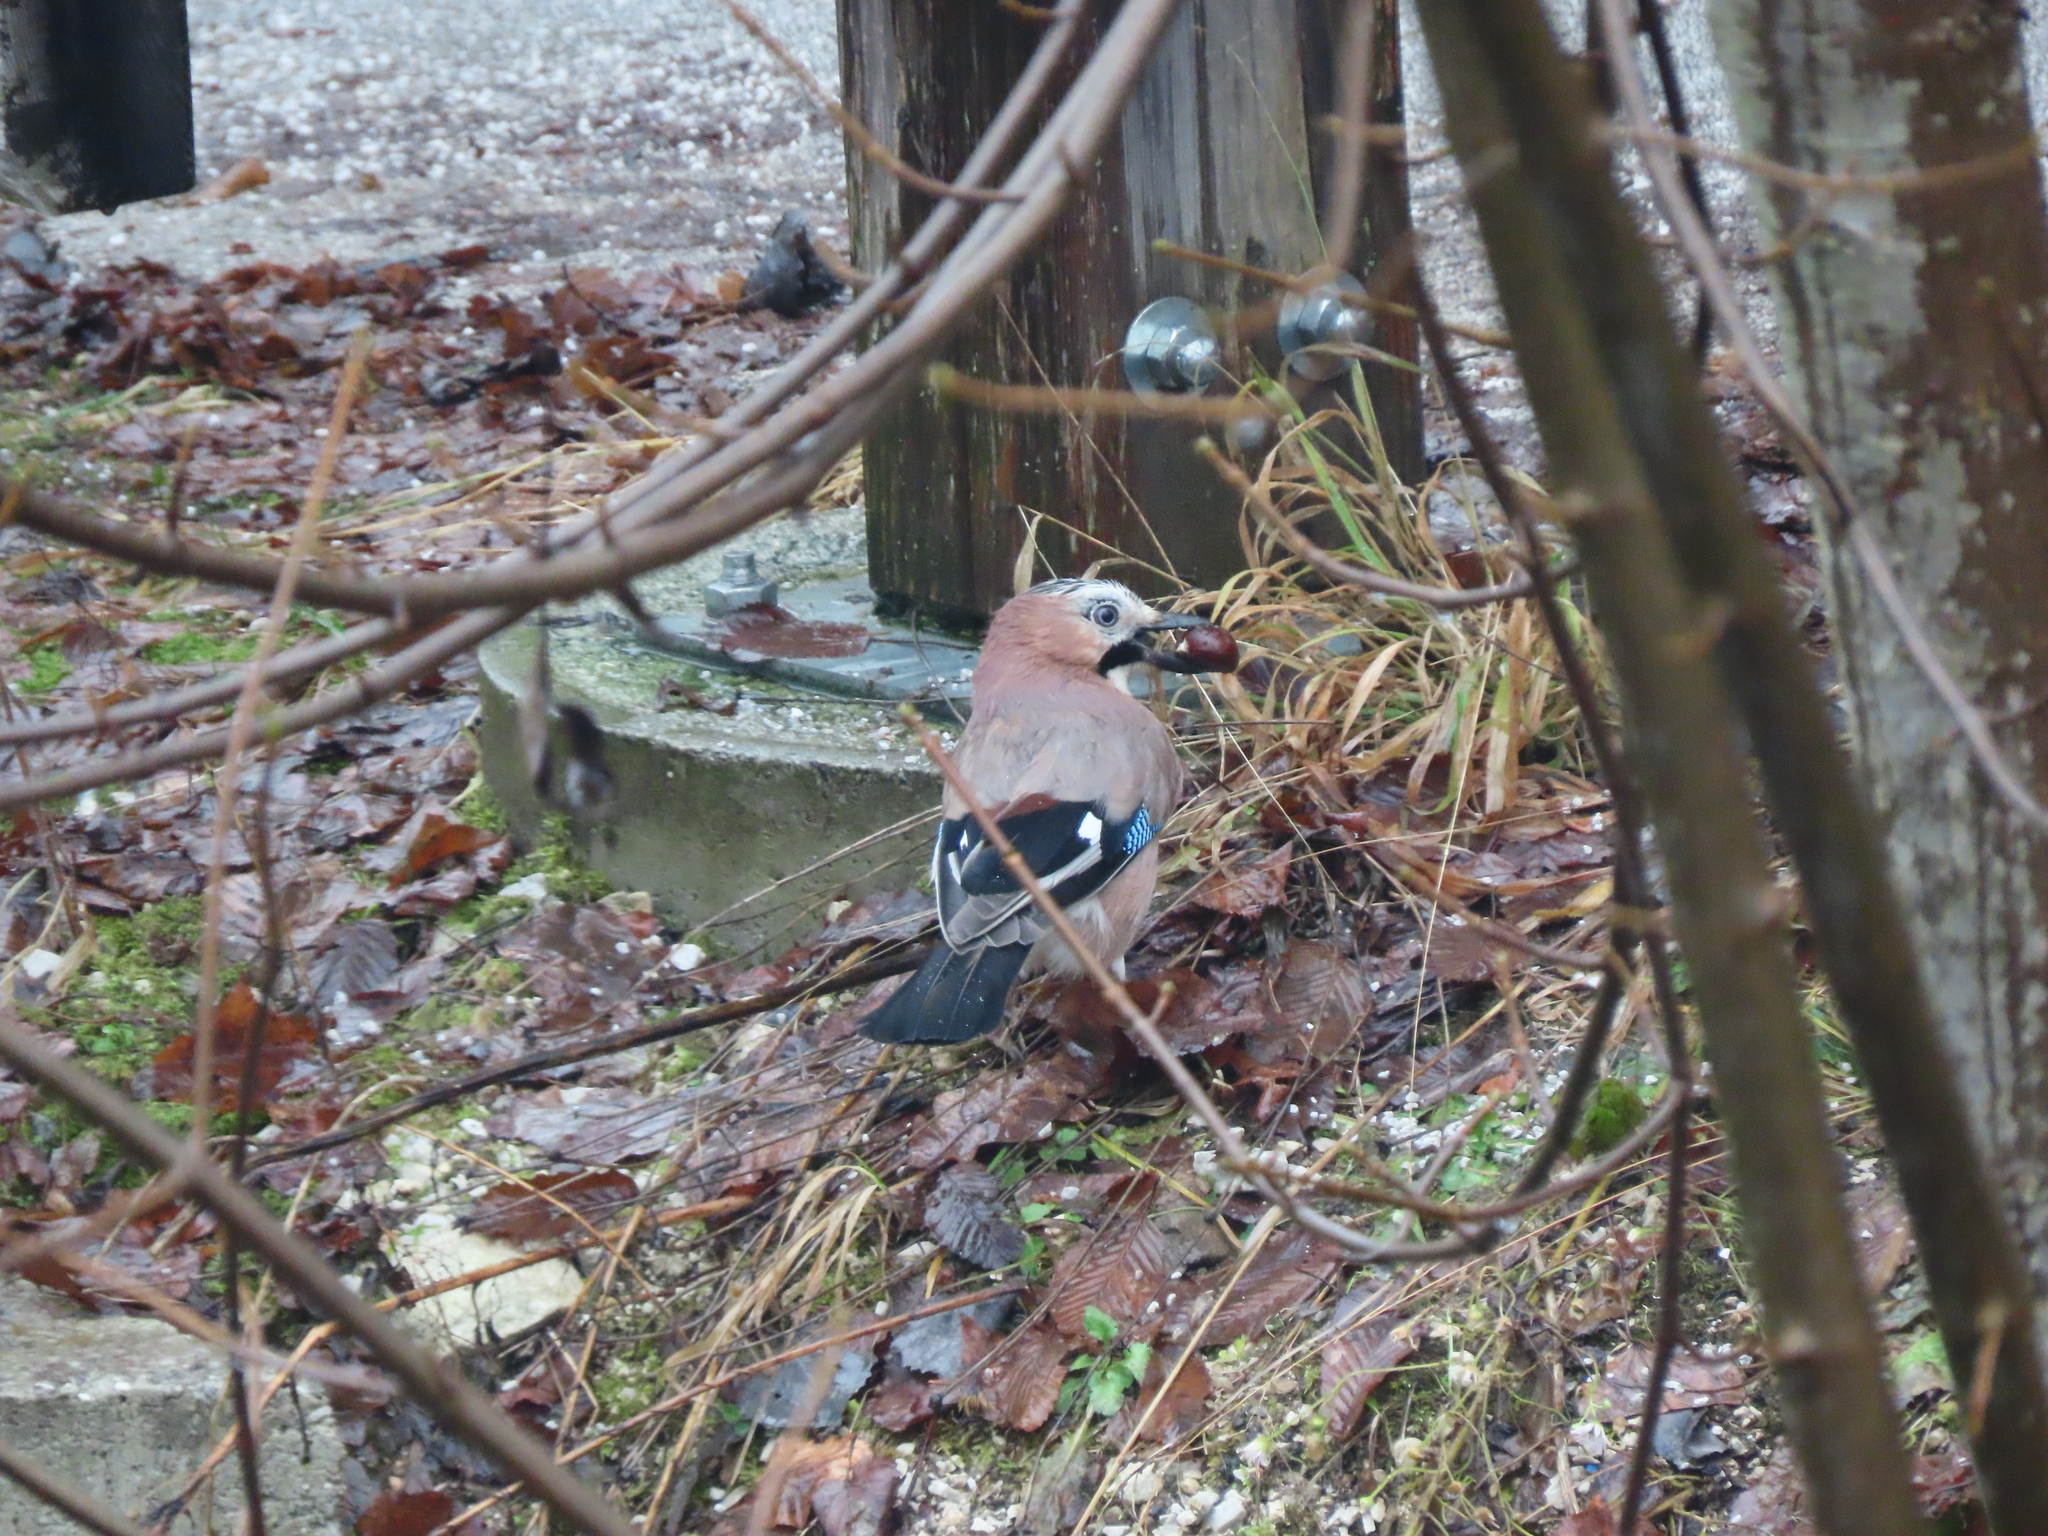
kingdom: Animalia
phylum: Chordata
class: Aves
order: Passeriformes
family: Corvidae
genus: Garrulus
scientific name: Garrulus glandarius
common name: Eurasian jay
